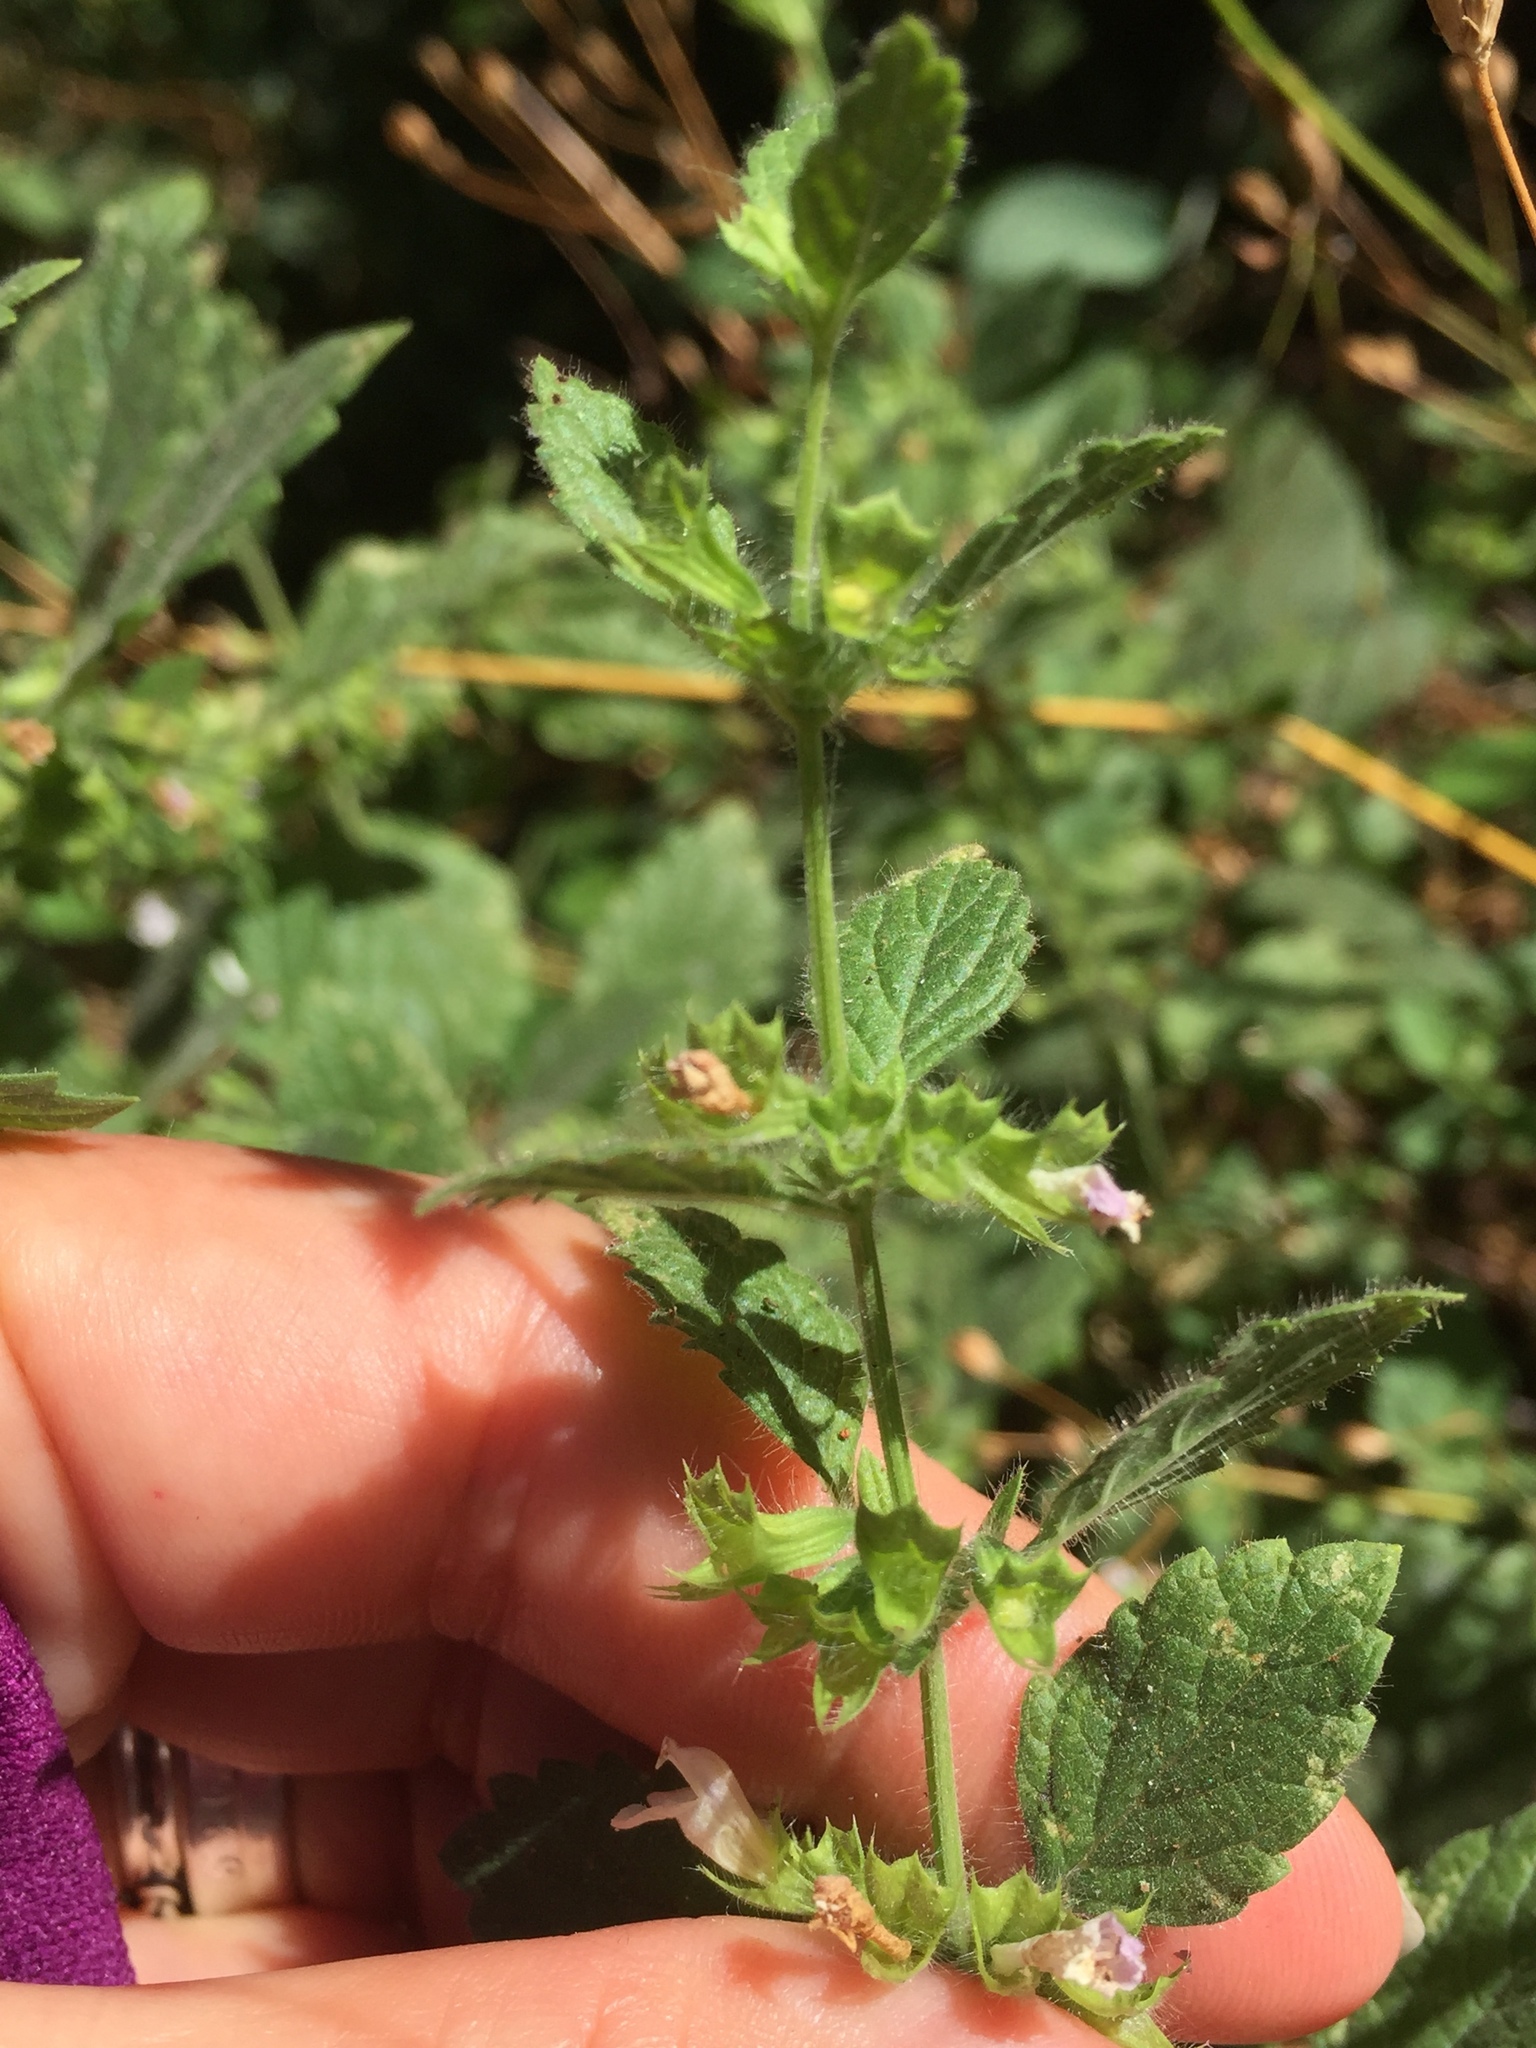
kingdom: Plantae
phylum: Tracheophyta
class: Magnoliopsida
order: Lamiales
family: Lamiaceae
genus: Melissa
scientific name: Melissa officinalis
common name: Balm
